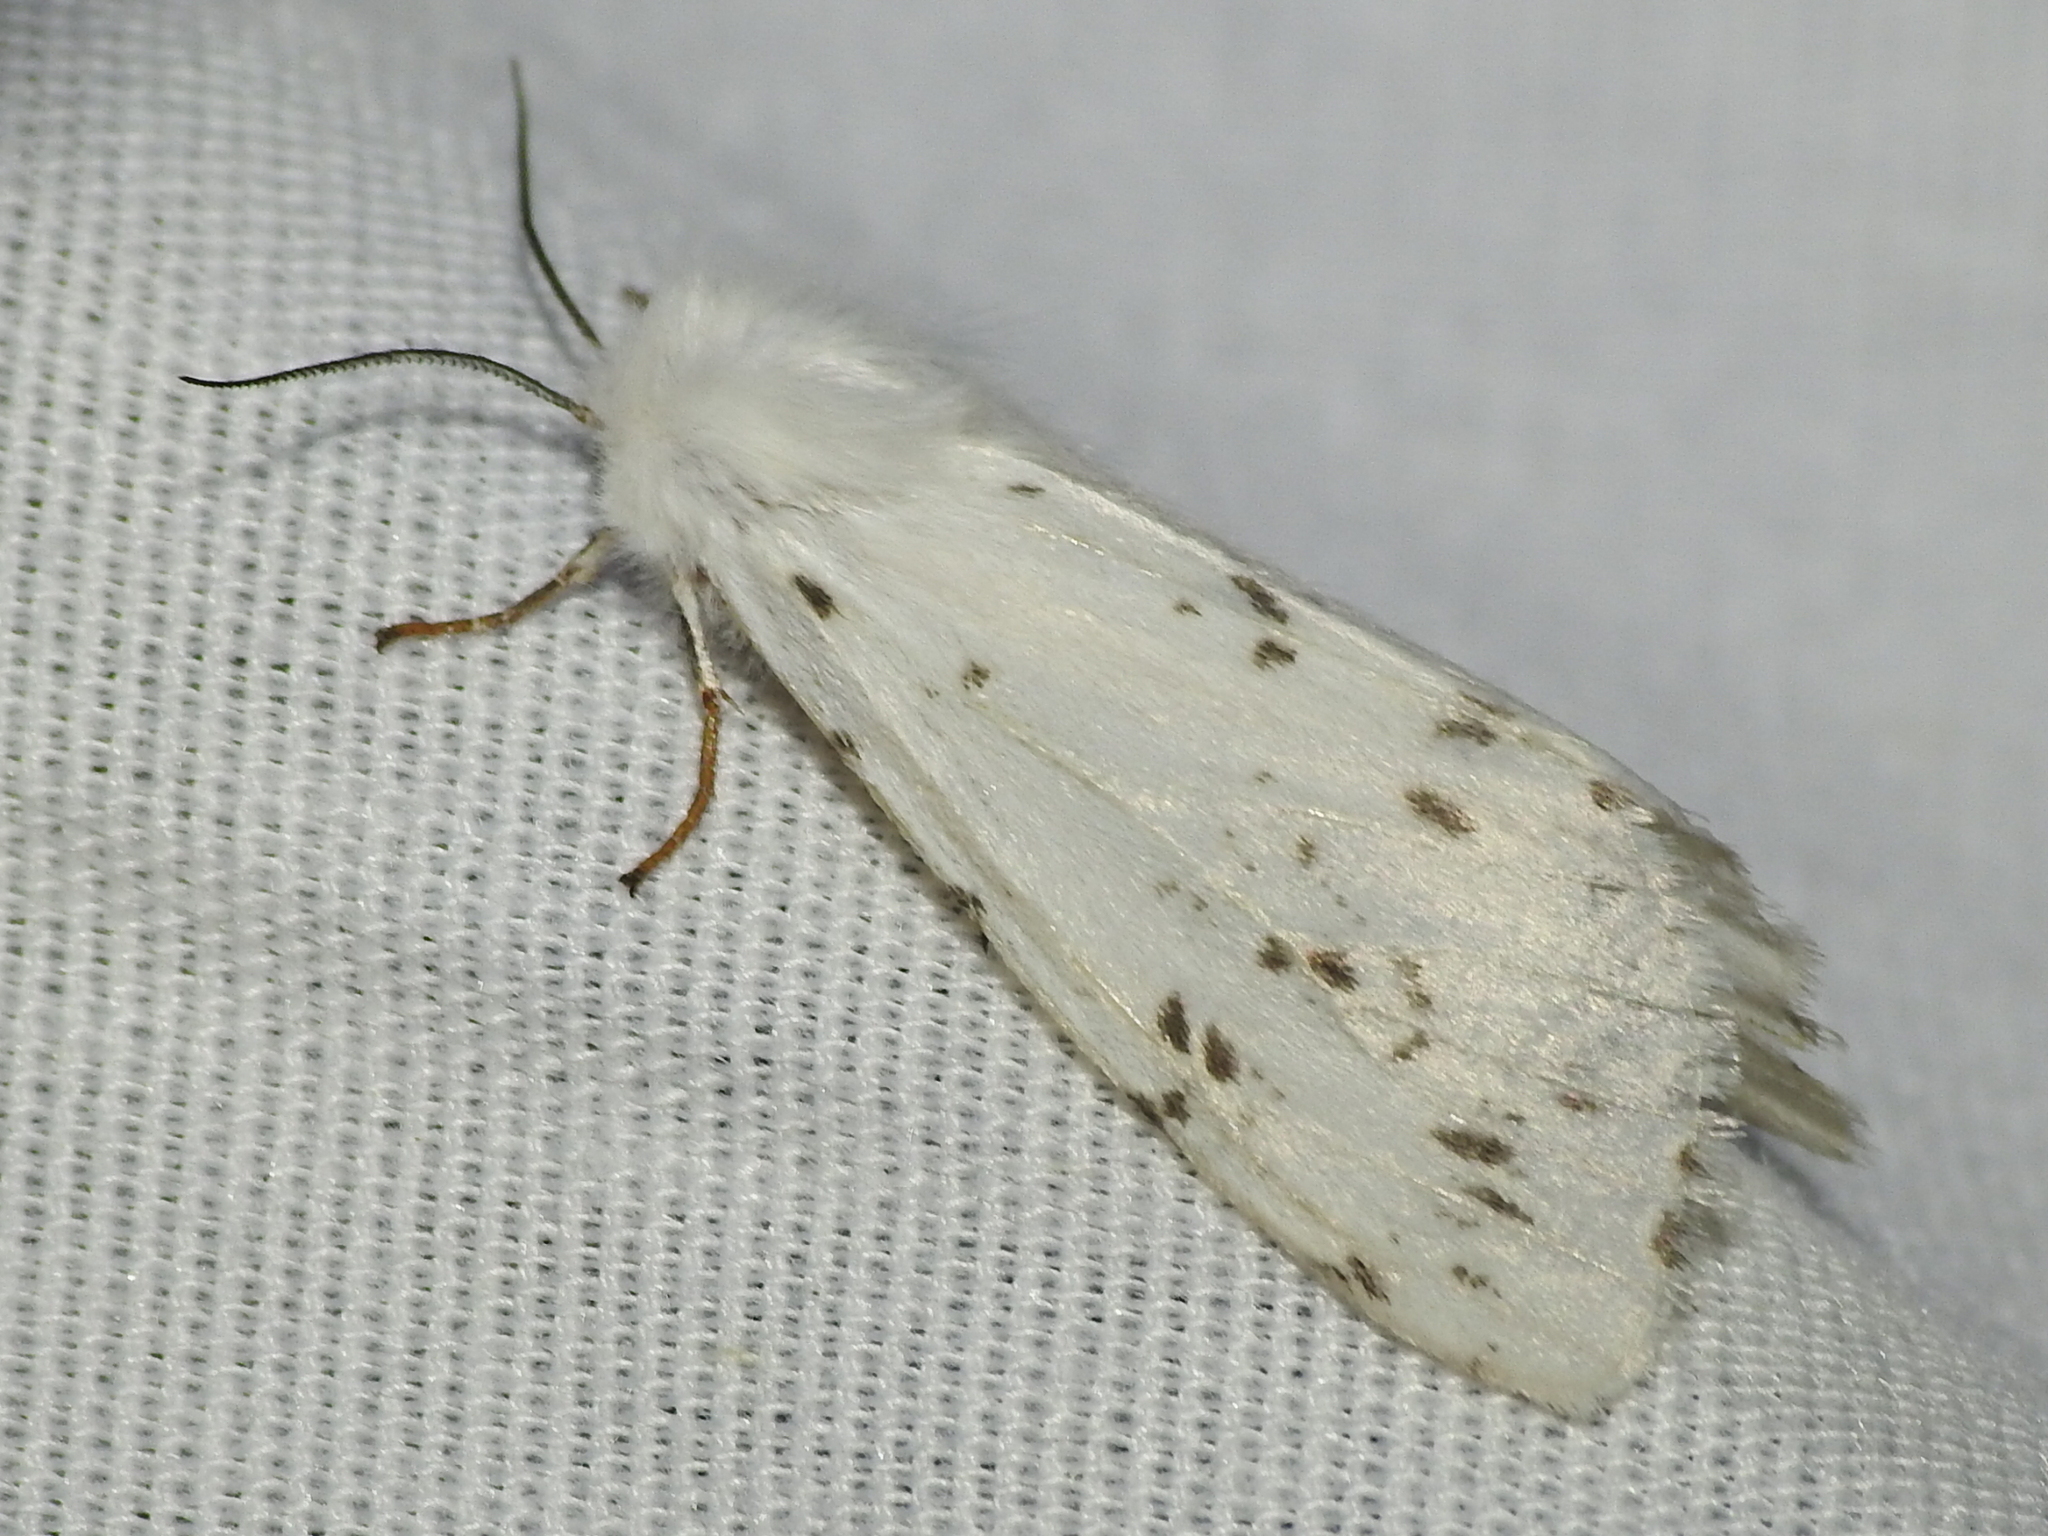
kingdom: Animalia
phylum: Arthropoda
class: Insecta
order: Lepidoptera
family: Erebidae
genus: Hyphantria
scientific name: Hyphantria cunea
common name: American white moth
